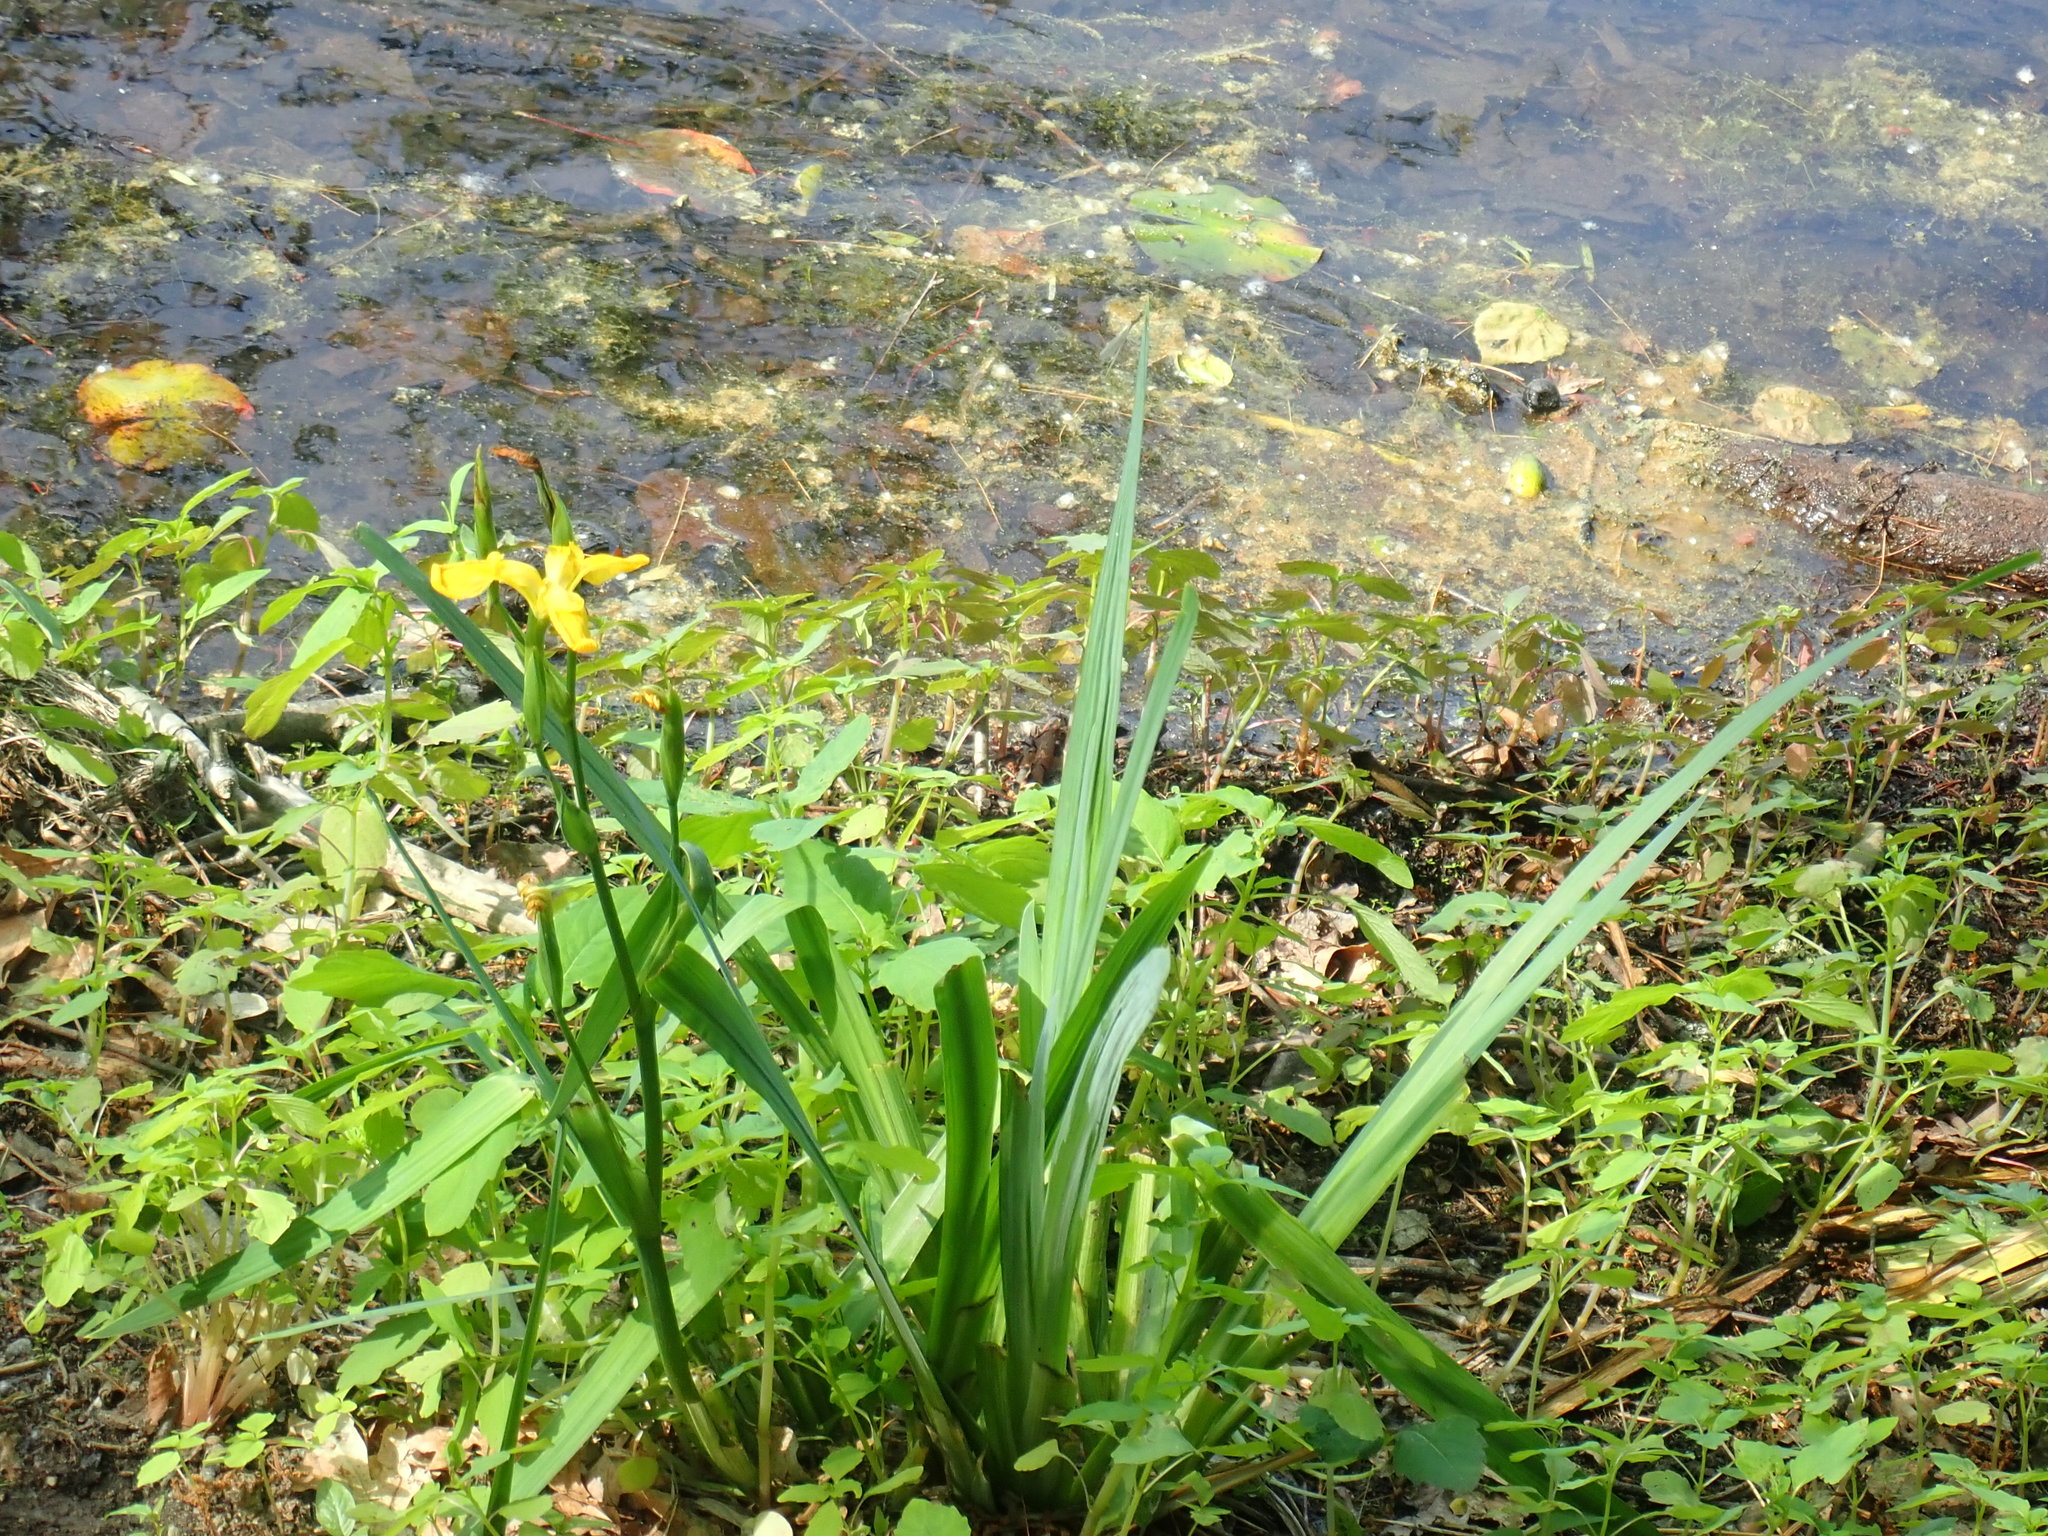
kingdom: Plantae
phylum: Tracheophyta
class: Liliopsida
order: Asparagales
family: Iridaceae
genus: Iris
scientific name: Iris pseudacorus
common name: Yellow flag
